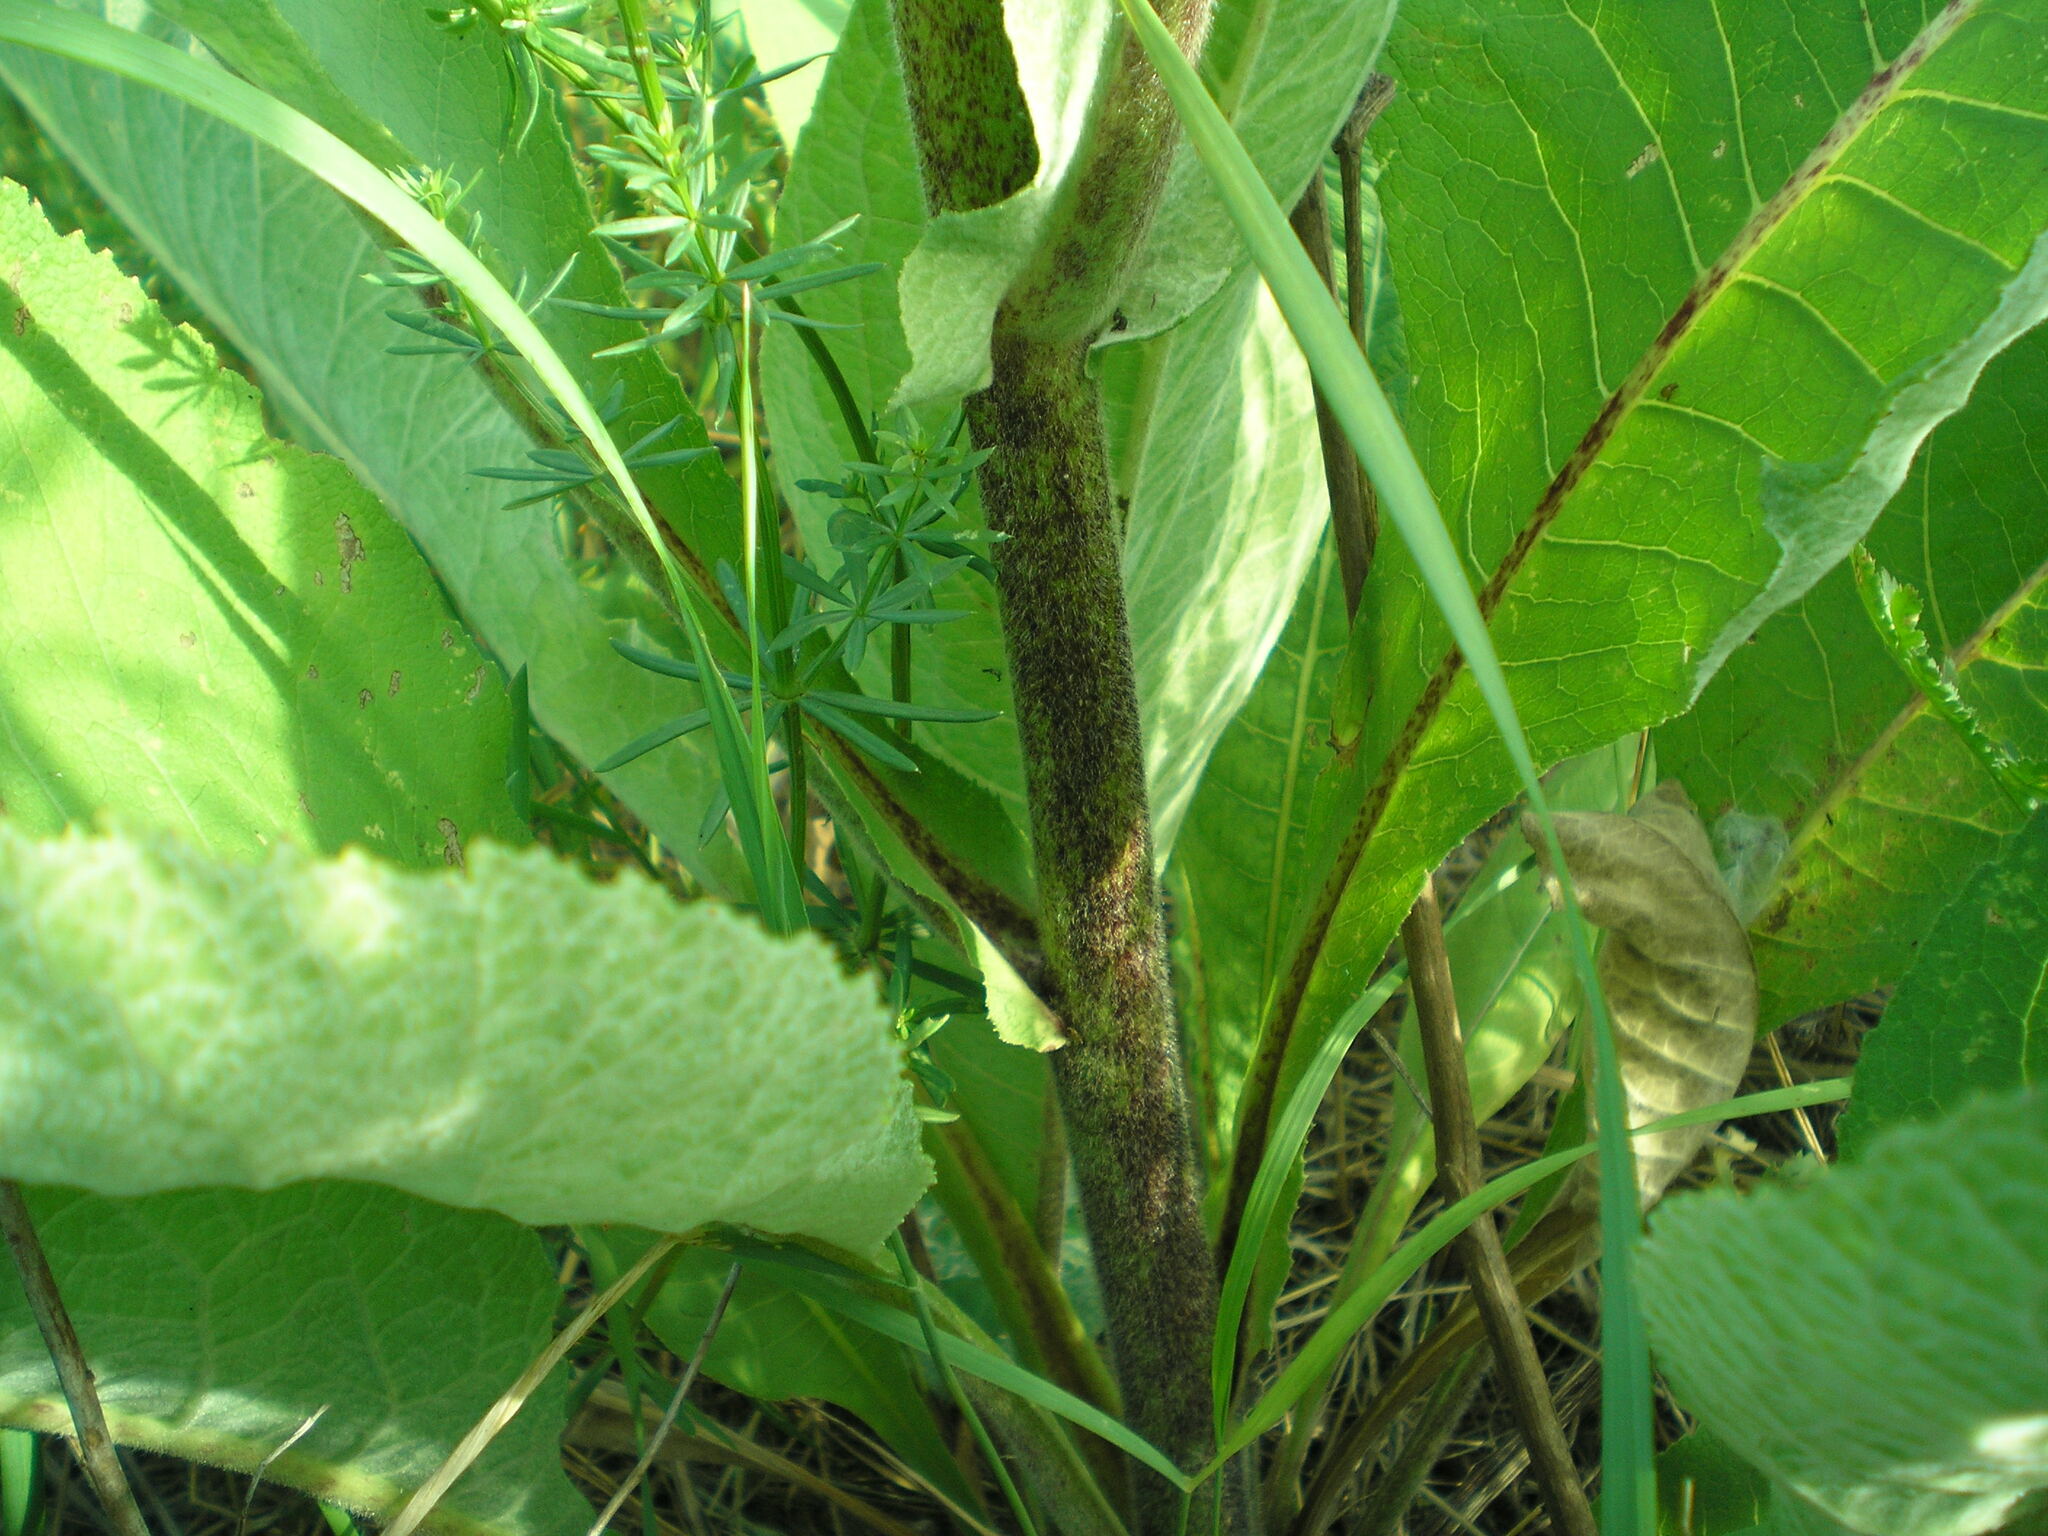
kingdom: Plantae
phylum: Tracheophyta
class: Magnoliopsida
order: Asterales
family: Asteraceae
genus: Inula
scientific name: Inula helenium
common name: Elecampane
